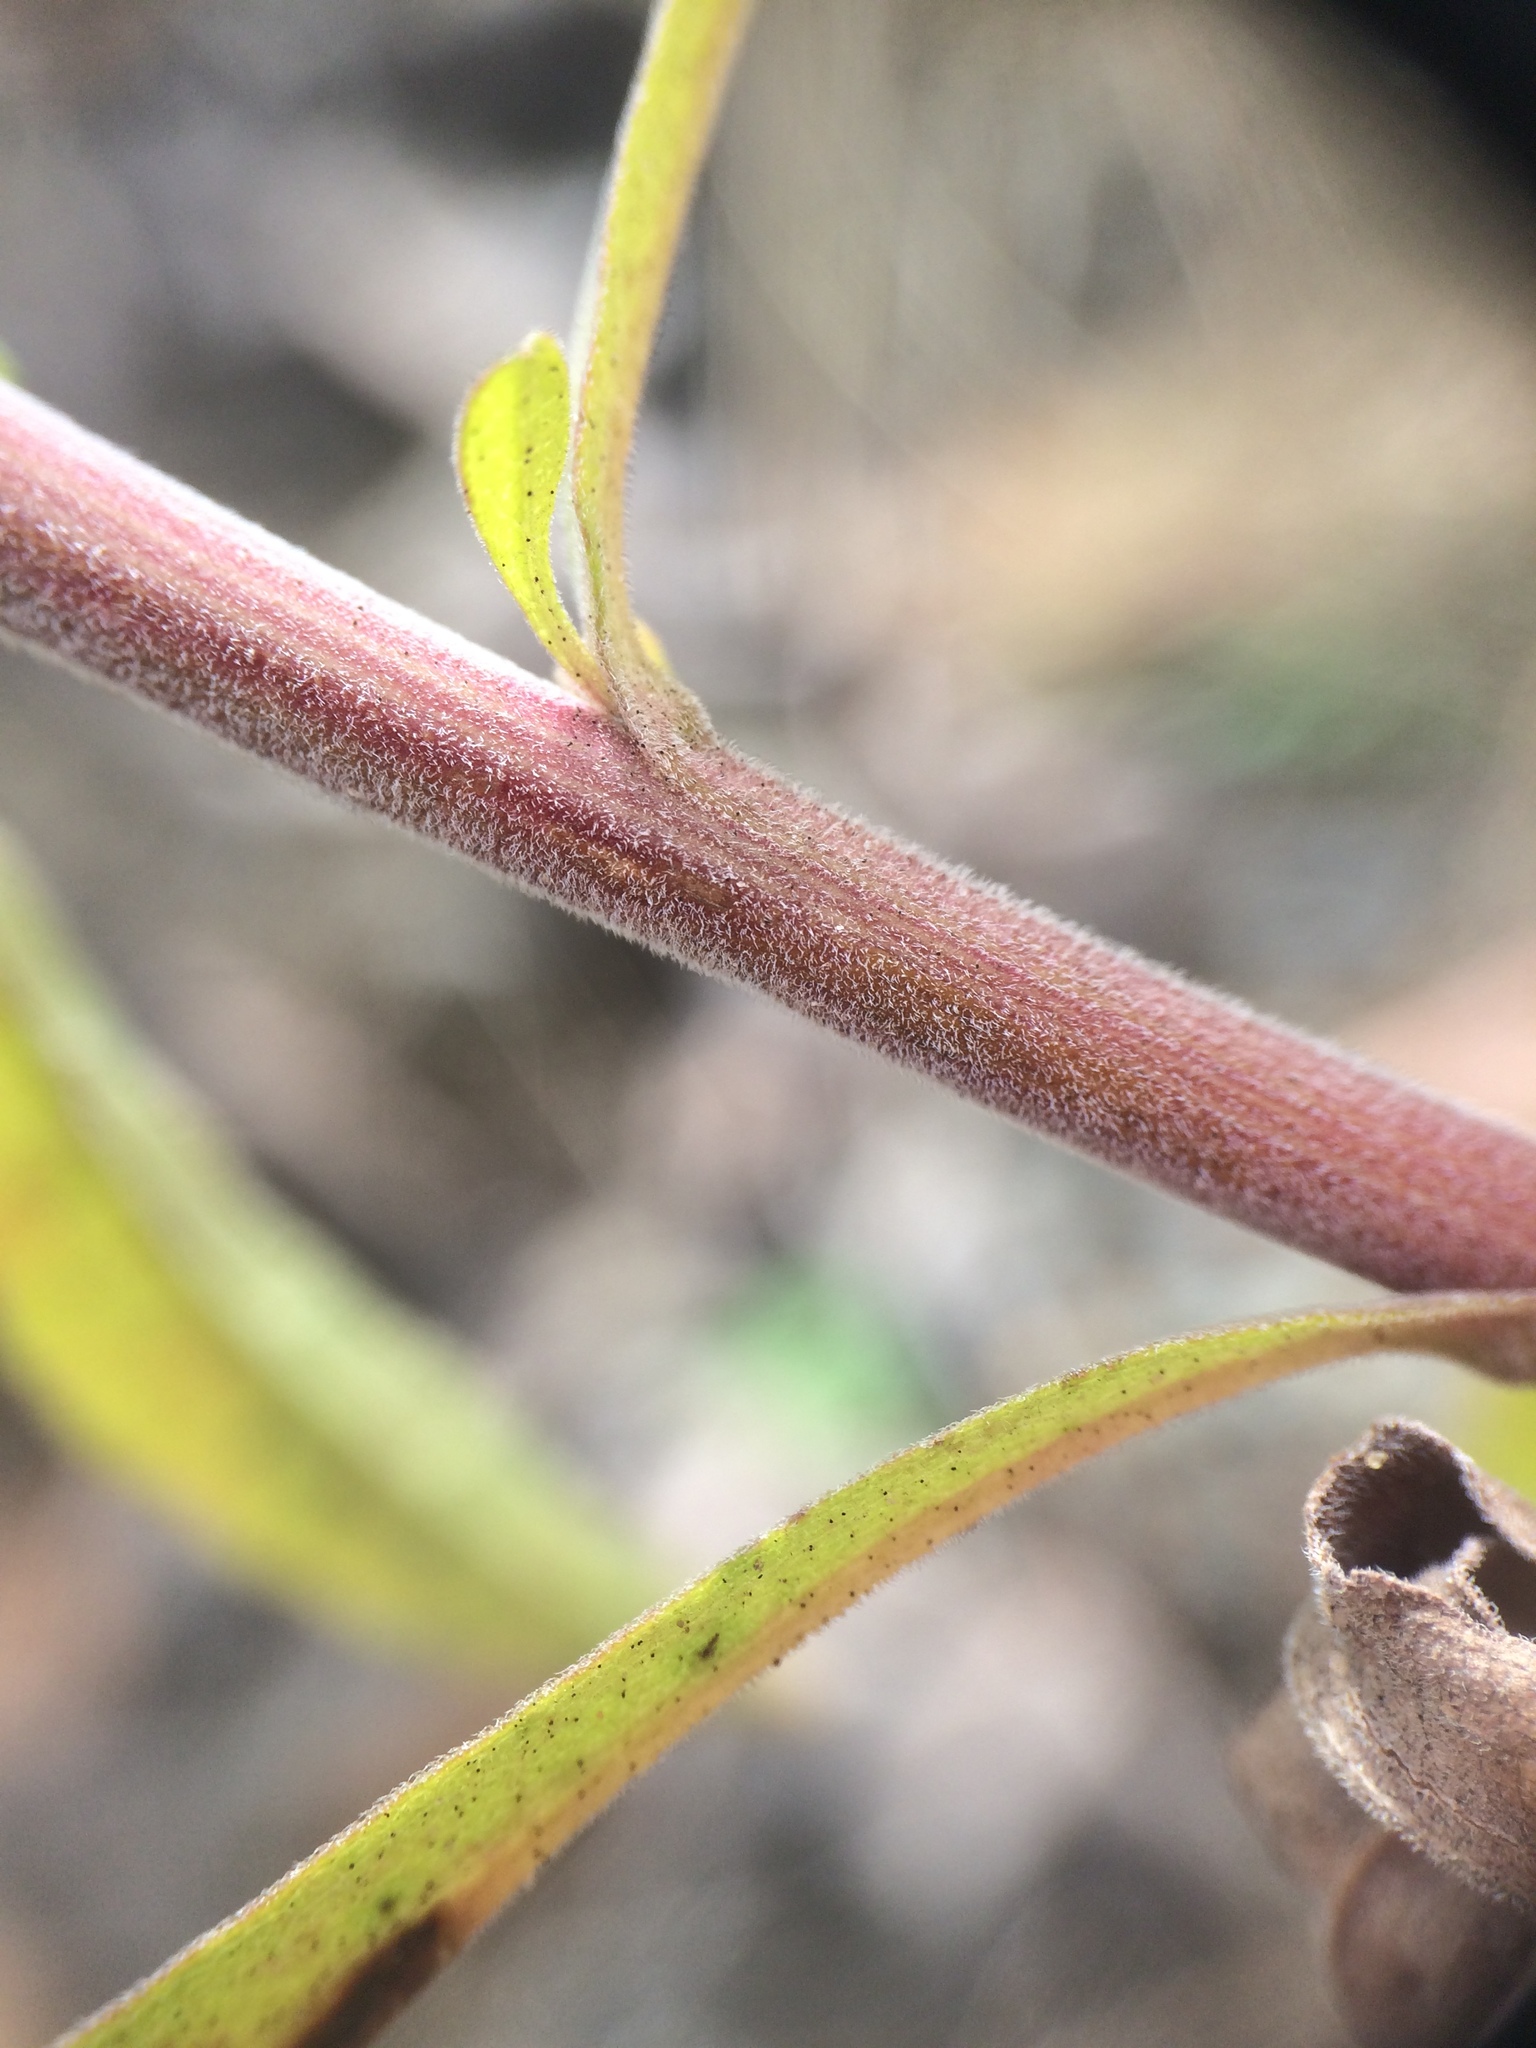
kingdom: Plantae
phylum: Tracheophyta
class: Magnoliopsida
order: Asterales
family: Asteraceae
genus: Solidago
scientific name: Solidago nemoralis
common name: Grey goldenrod
